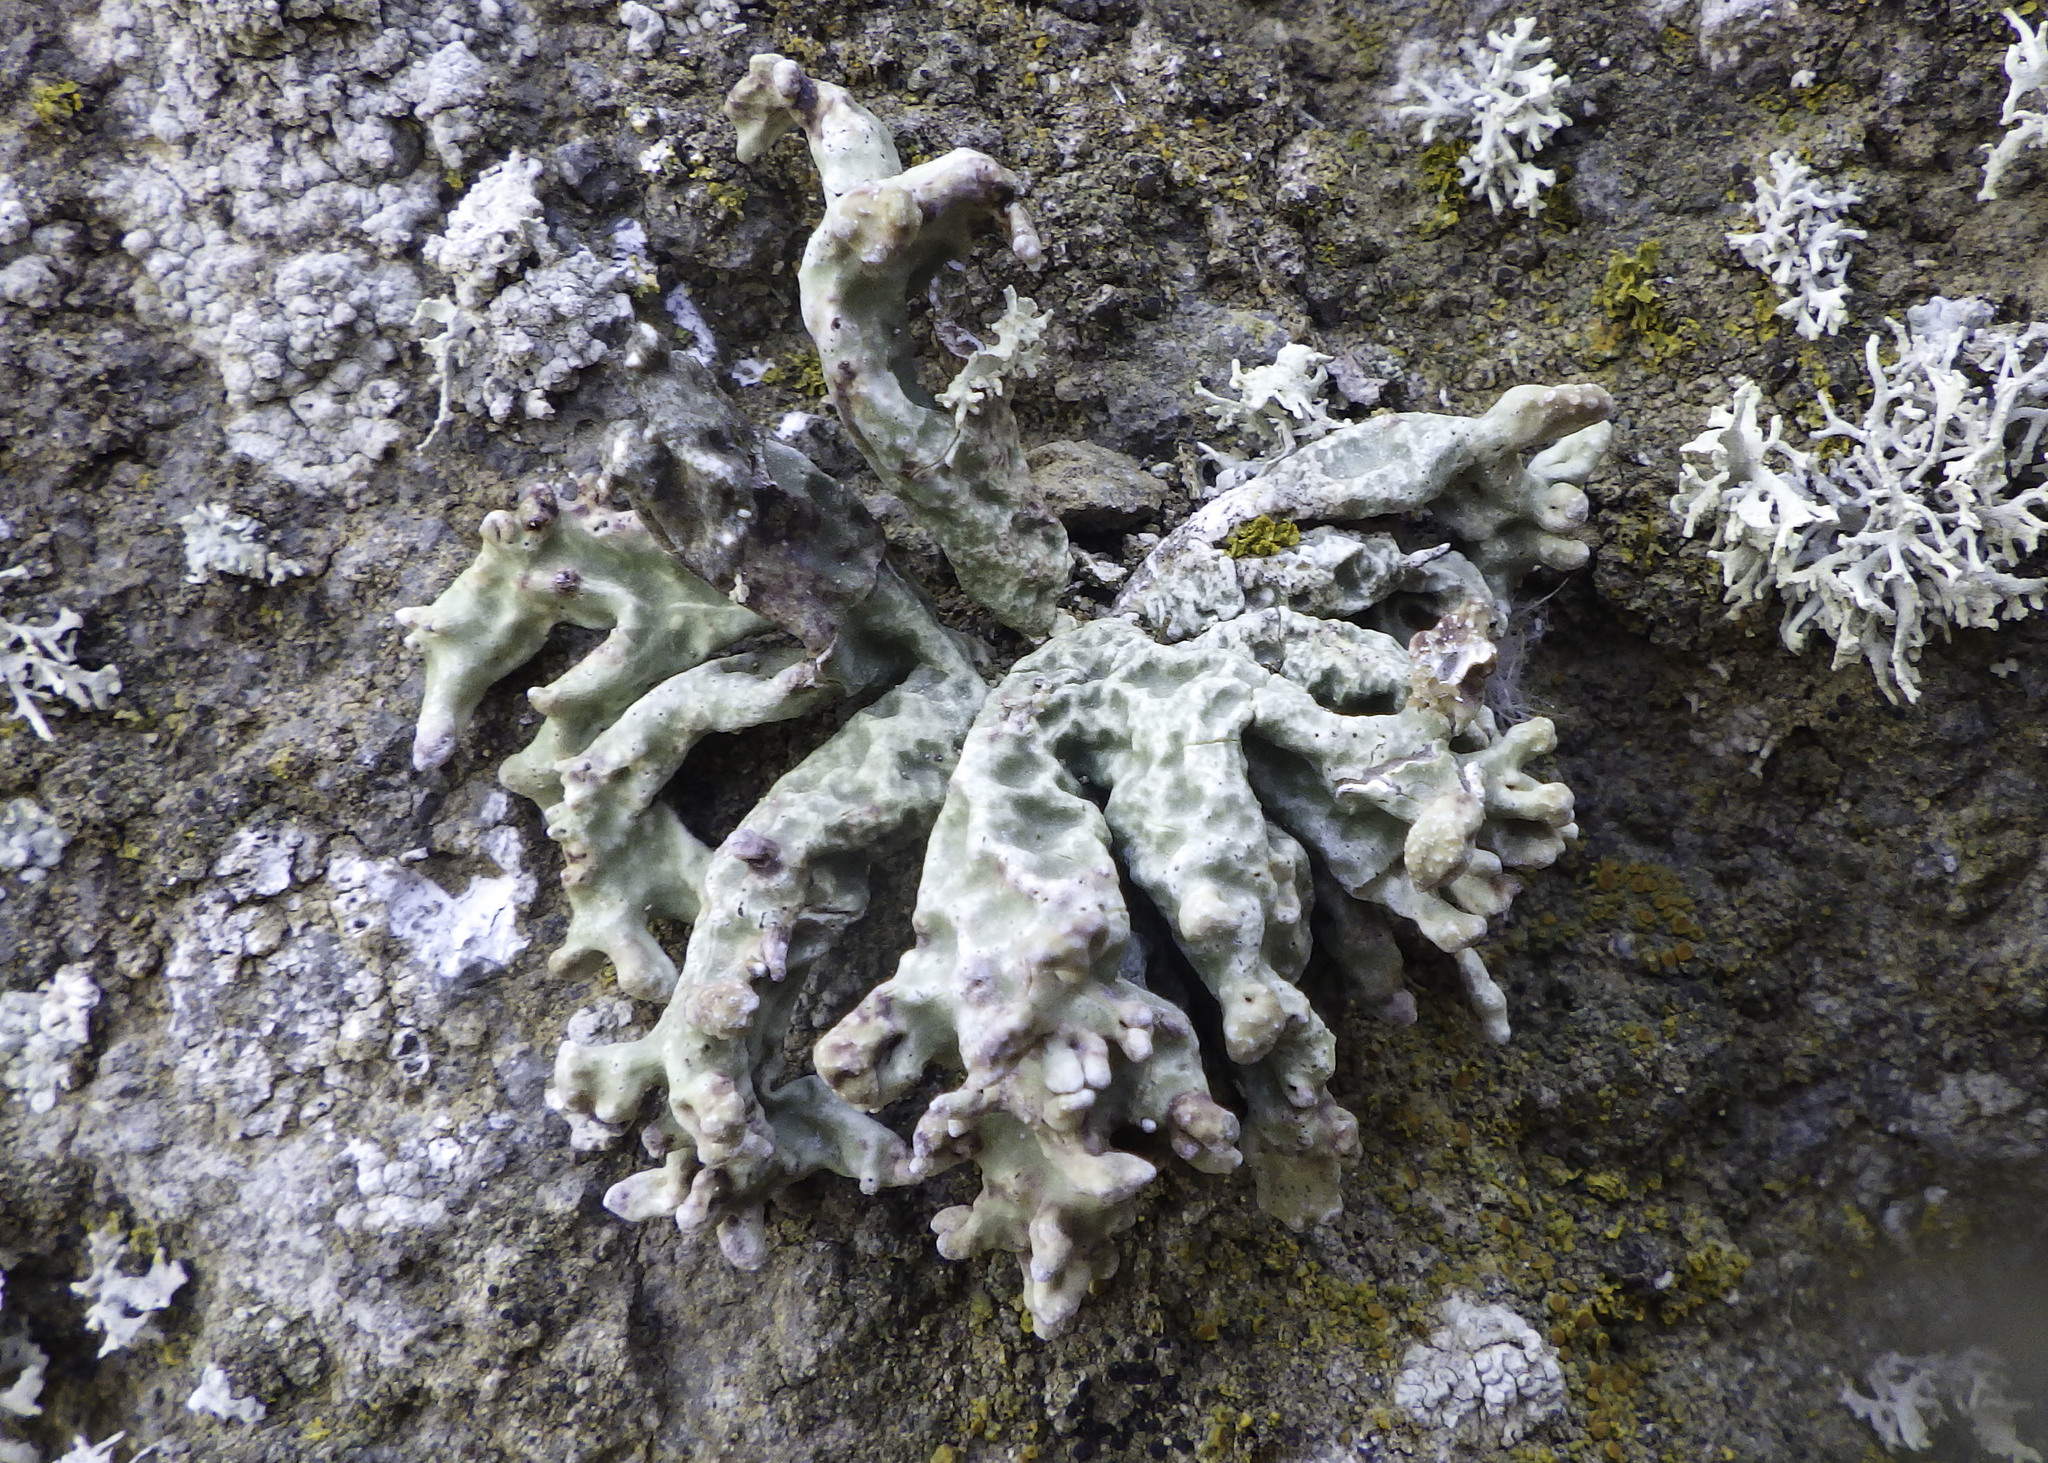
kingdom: Fungi
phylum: Ascomycota
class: Lecanoromycetes
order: Lecanorales
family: Ramalinaceae
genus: Niebla
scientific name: Niebla robusta
